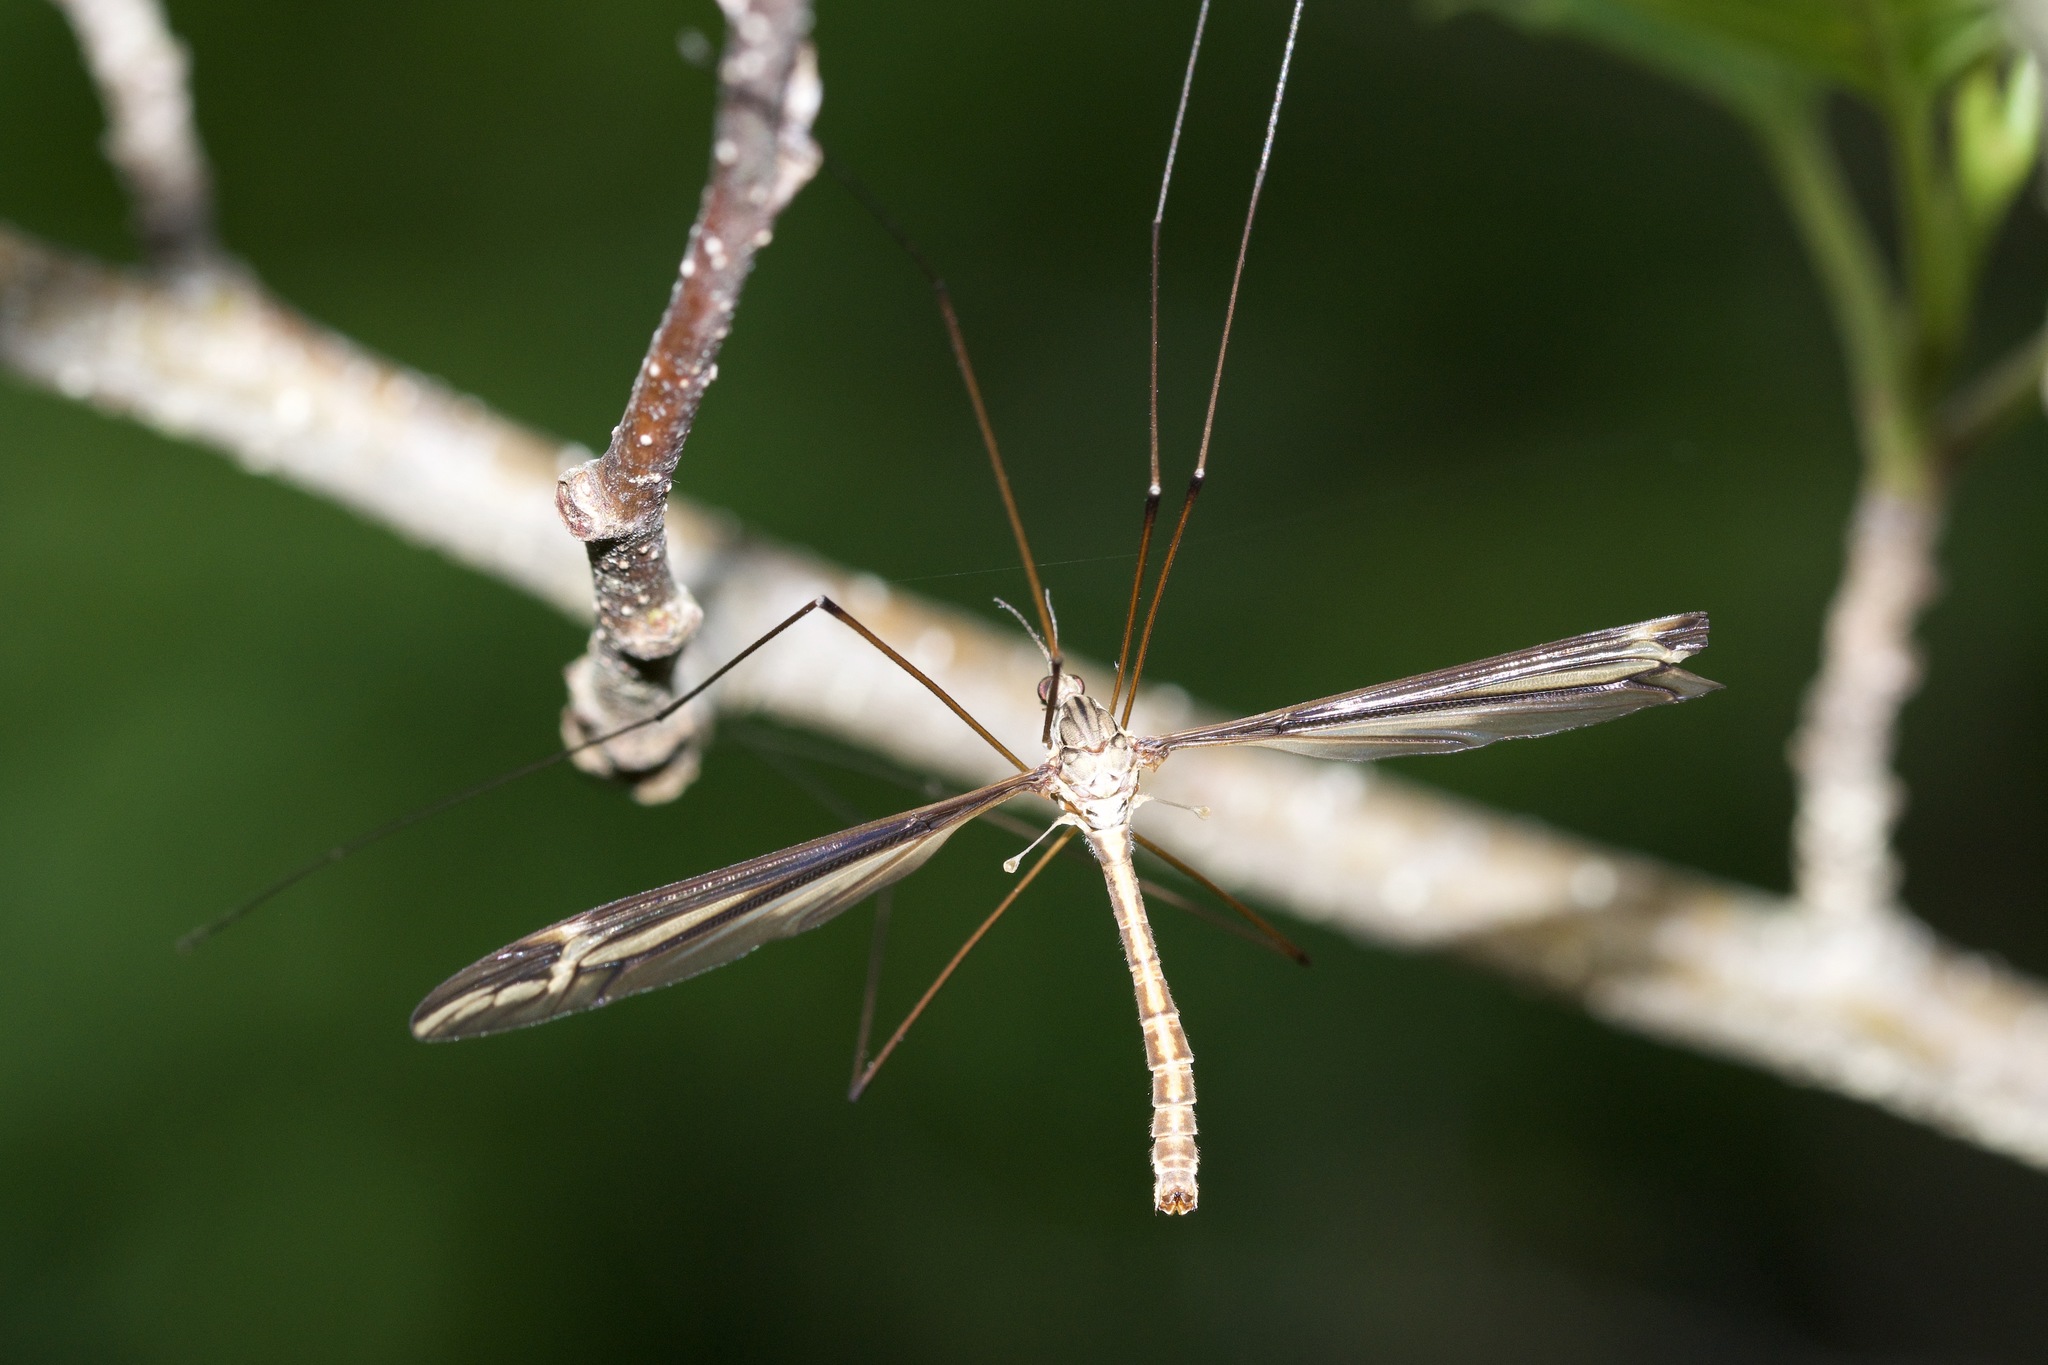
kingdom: Animalia
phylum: Arthropoda
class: Insecta
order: Diptera
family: Tipulidae
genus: Tipula
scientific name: Tipula caloptera
